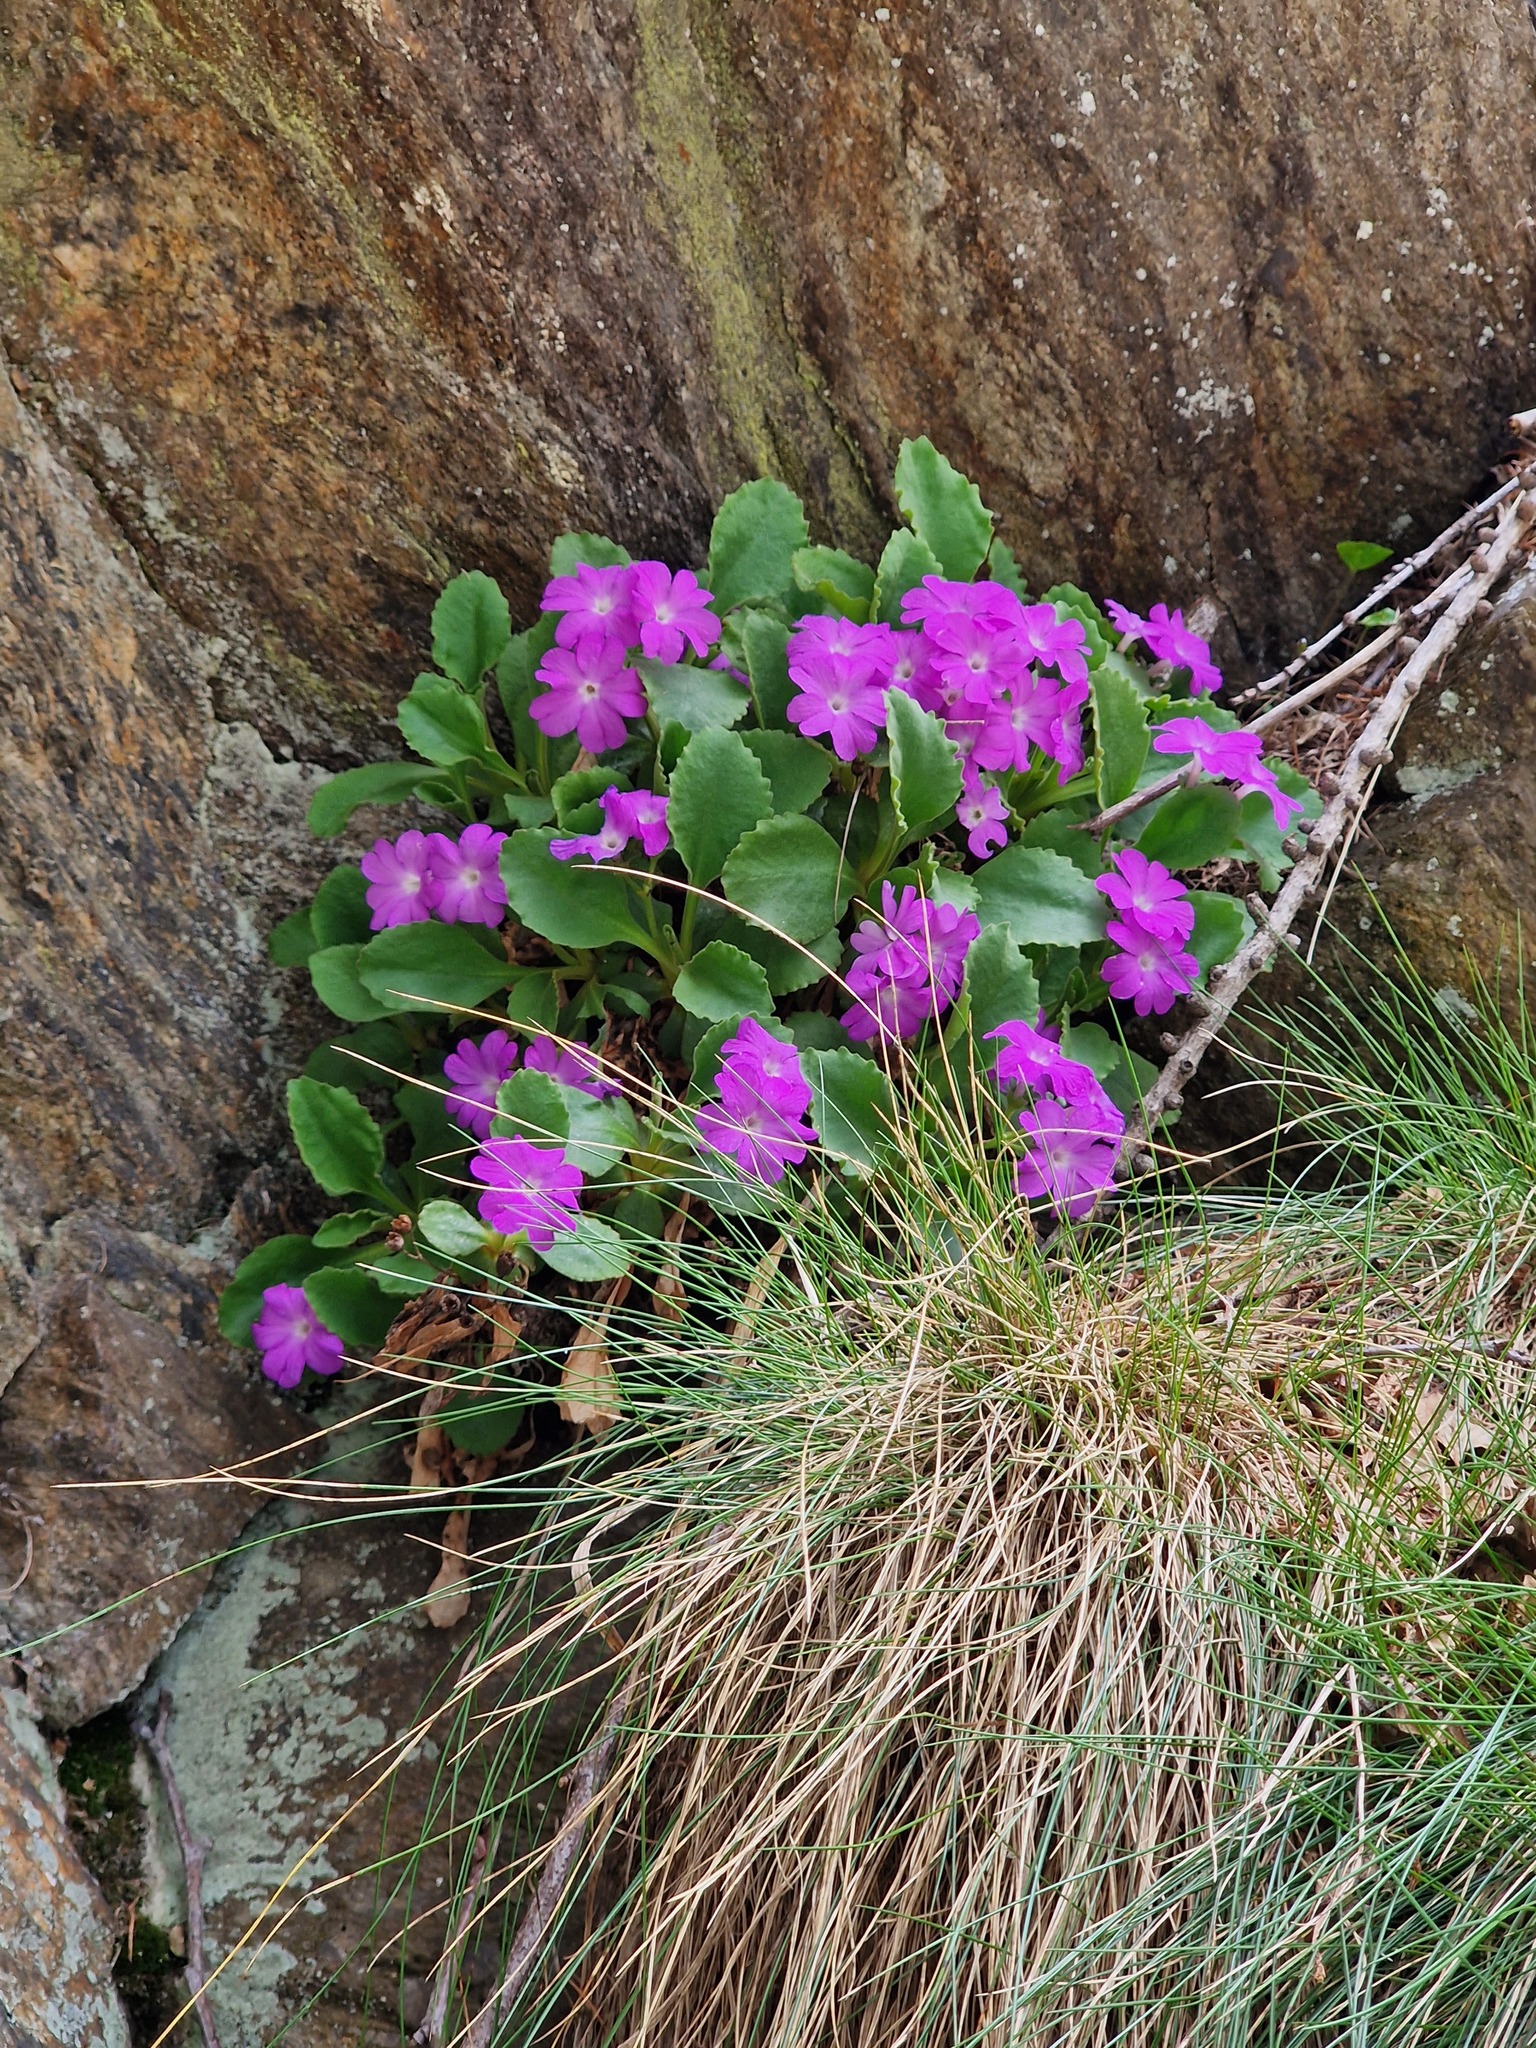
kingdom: Plantae
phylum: Tracheophyta
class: Magnoliopsida
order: Ericales
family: Primulaceae
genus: Primula
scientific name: Primula hirsuta
